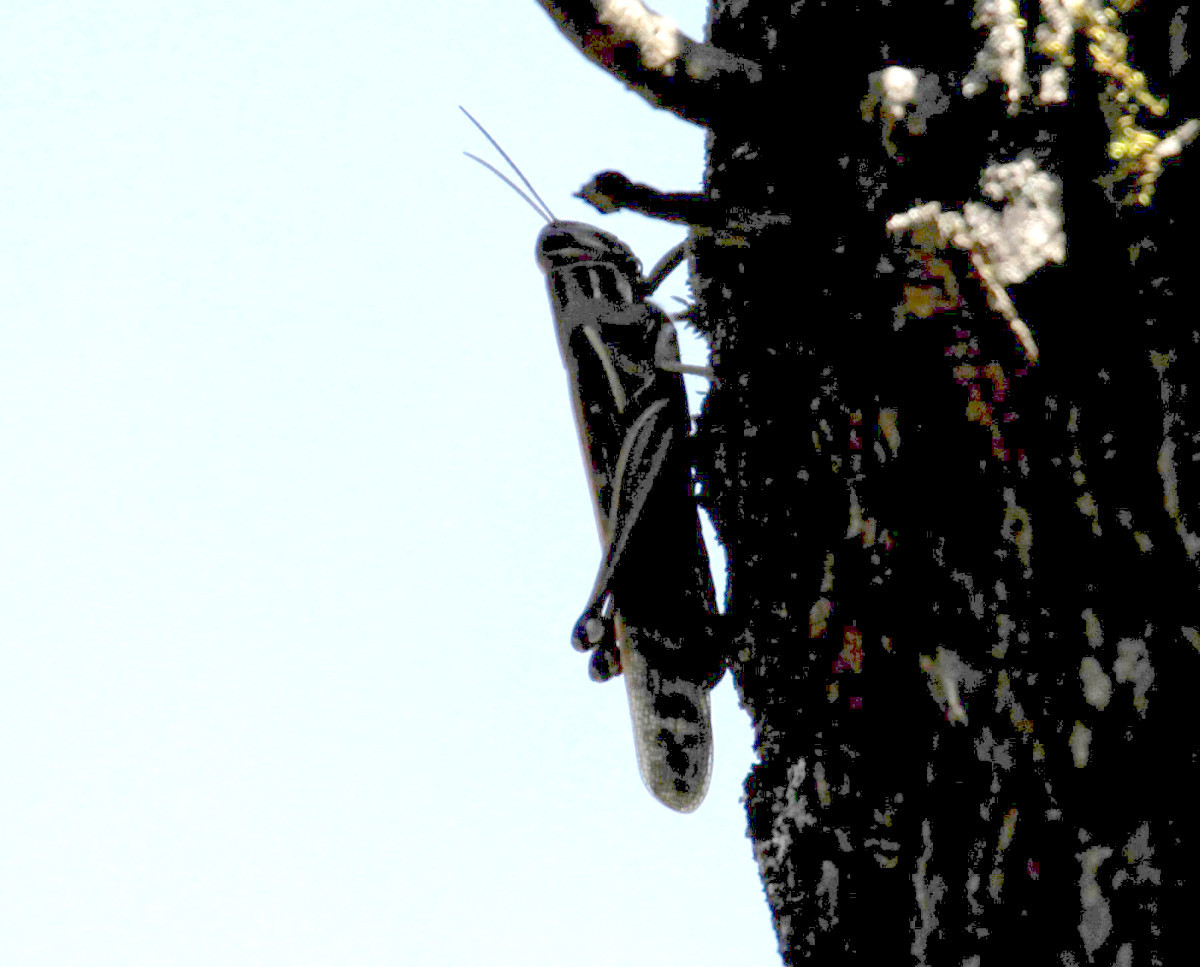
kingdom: Animalia
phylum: Arthropoda
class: Insecta
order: Orthoptera
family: Acrididae
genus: Schistocerca
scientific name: Schistocerca americana
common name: American bird locust
